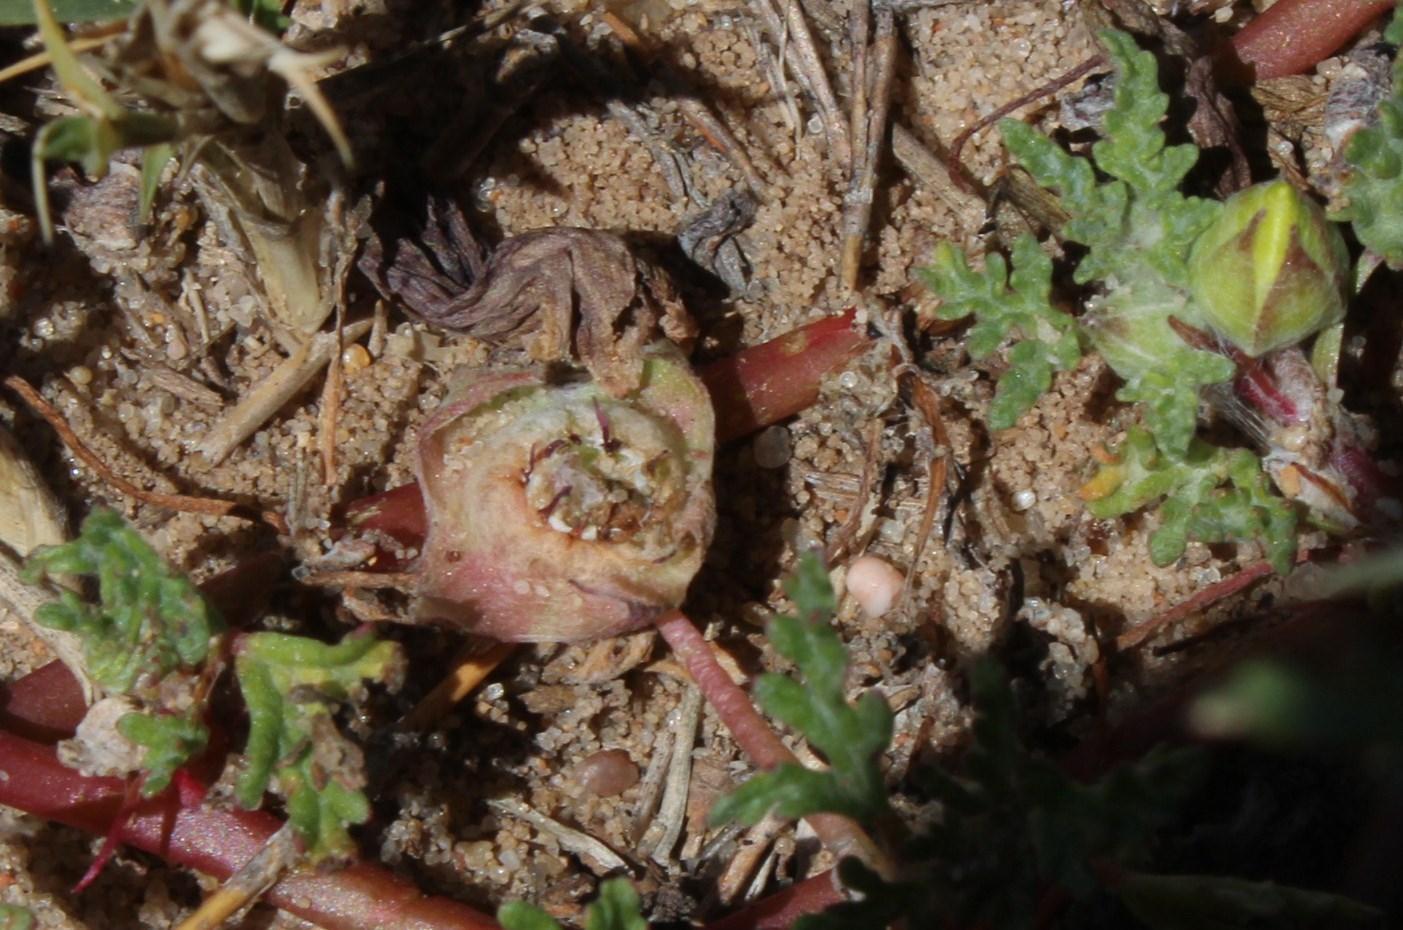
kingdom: Plantae
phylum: Tracheophyta
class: Magnoliopsida
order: Malvales
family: Neuradaceae
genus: Grielum
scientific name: Grielum humifusum
